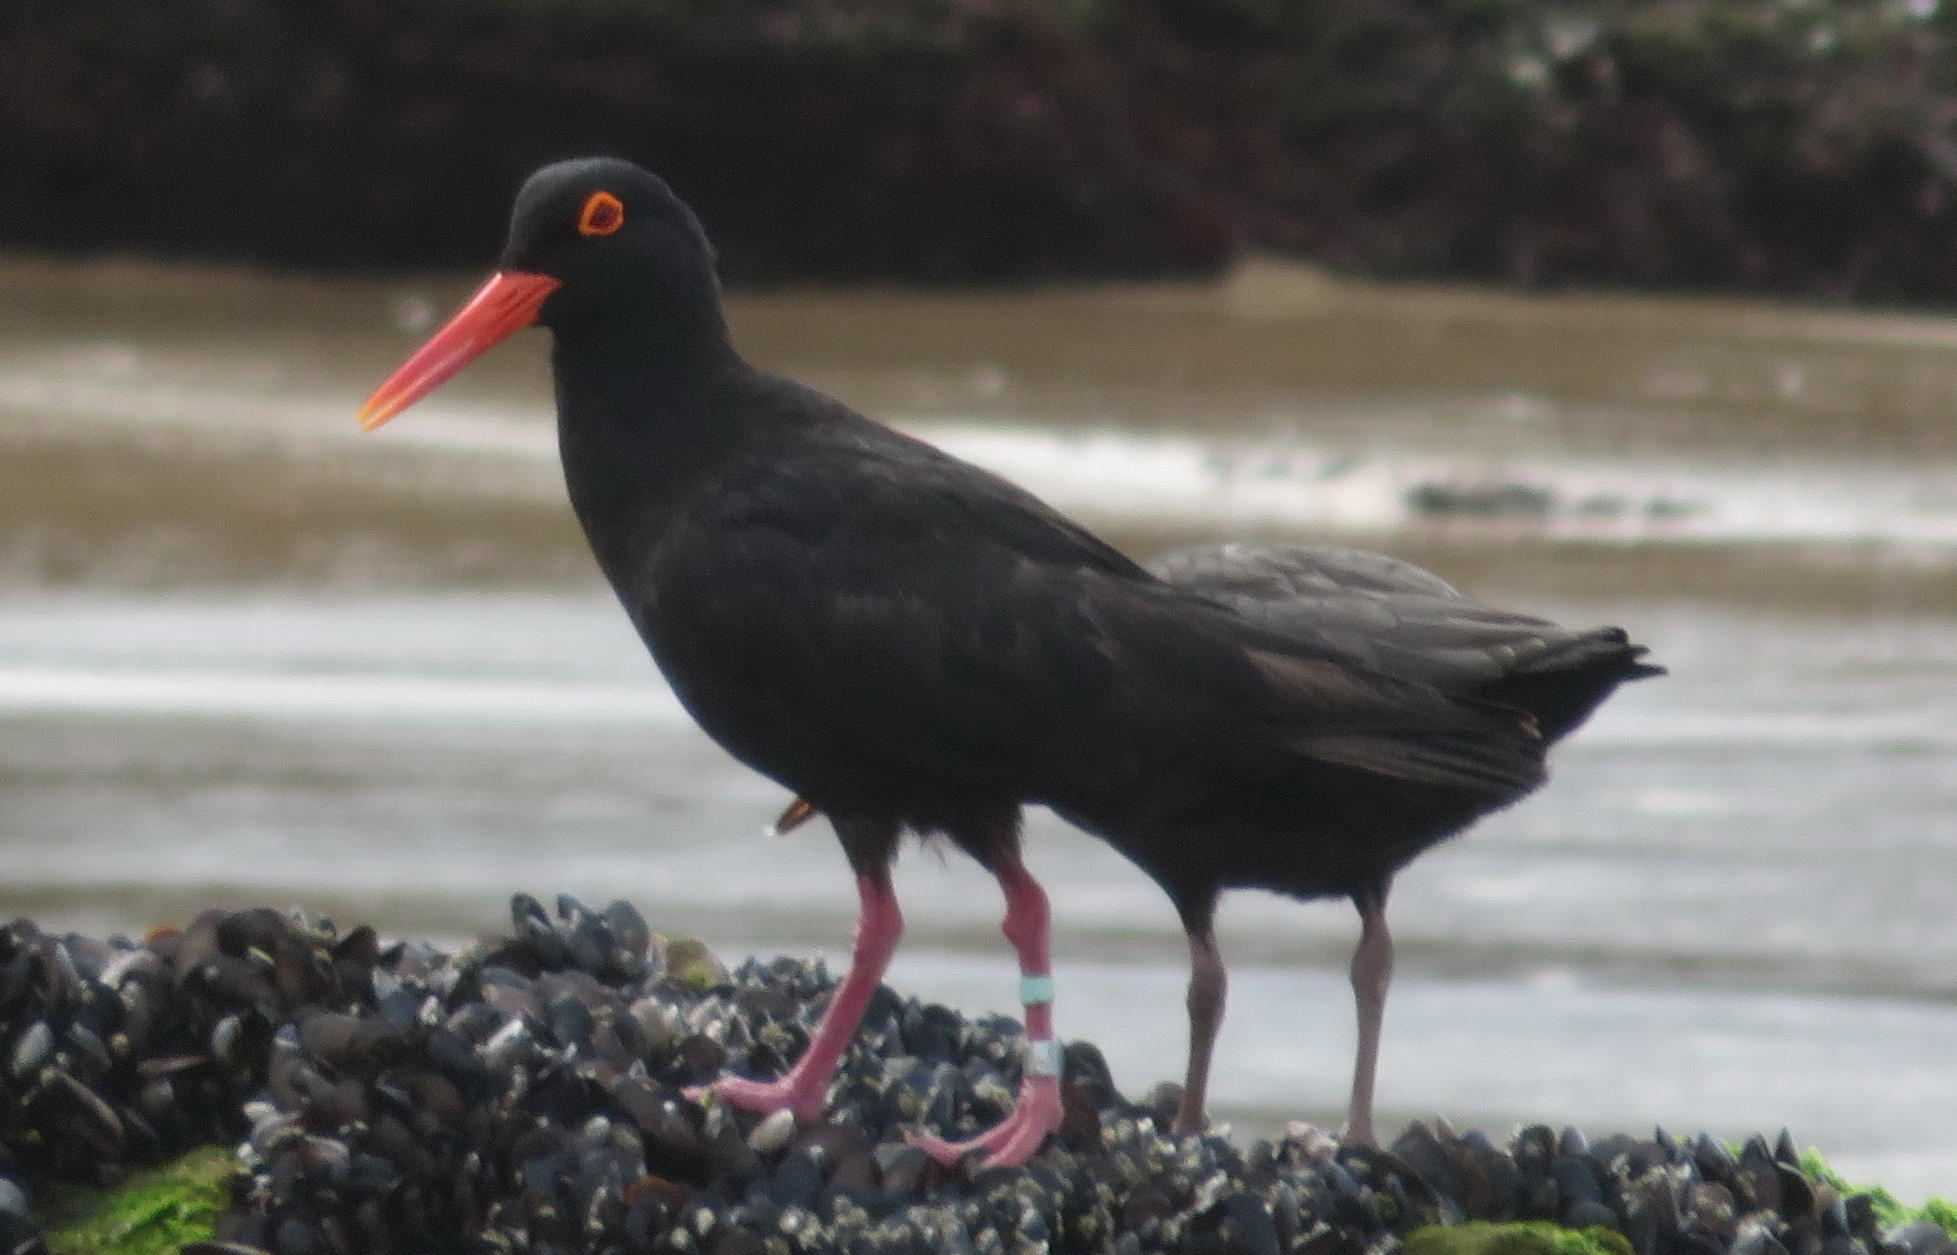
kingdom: Animalia
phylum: Chordata
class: Aves
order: Charadriiformes
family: Haematopodidae
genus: Haematopus
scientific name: Haematopus moquini
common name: African oystercatcher
